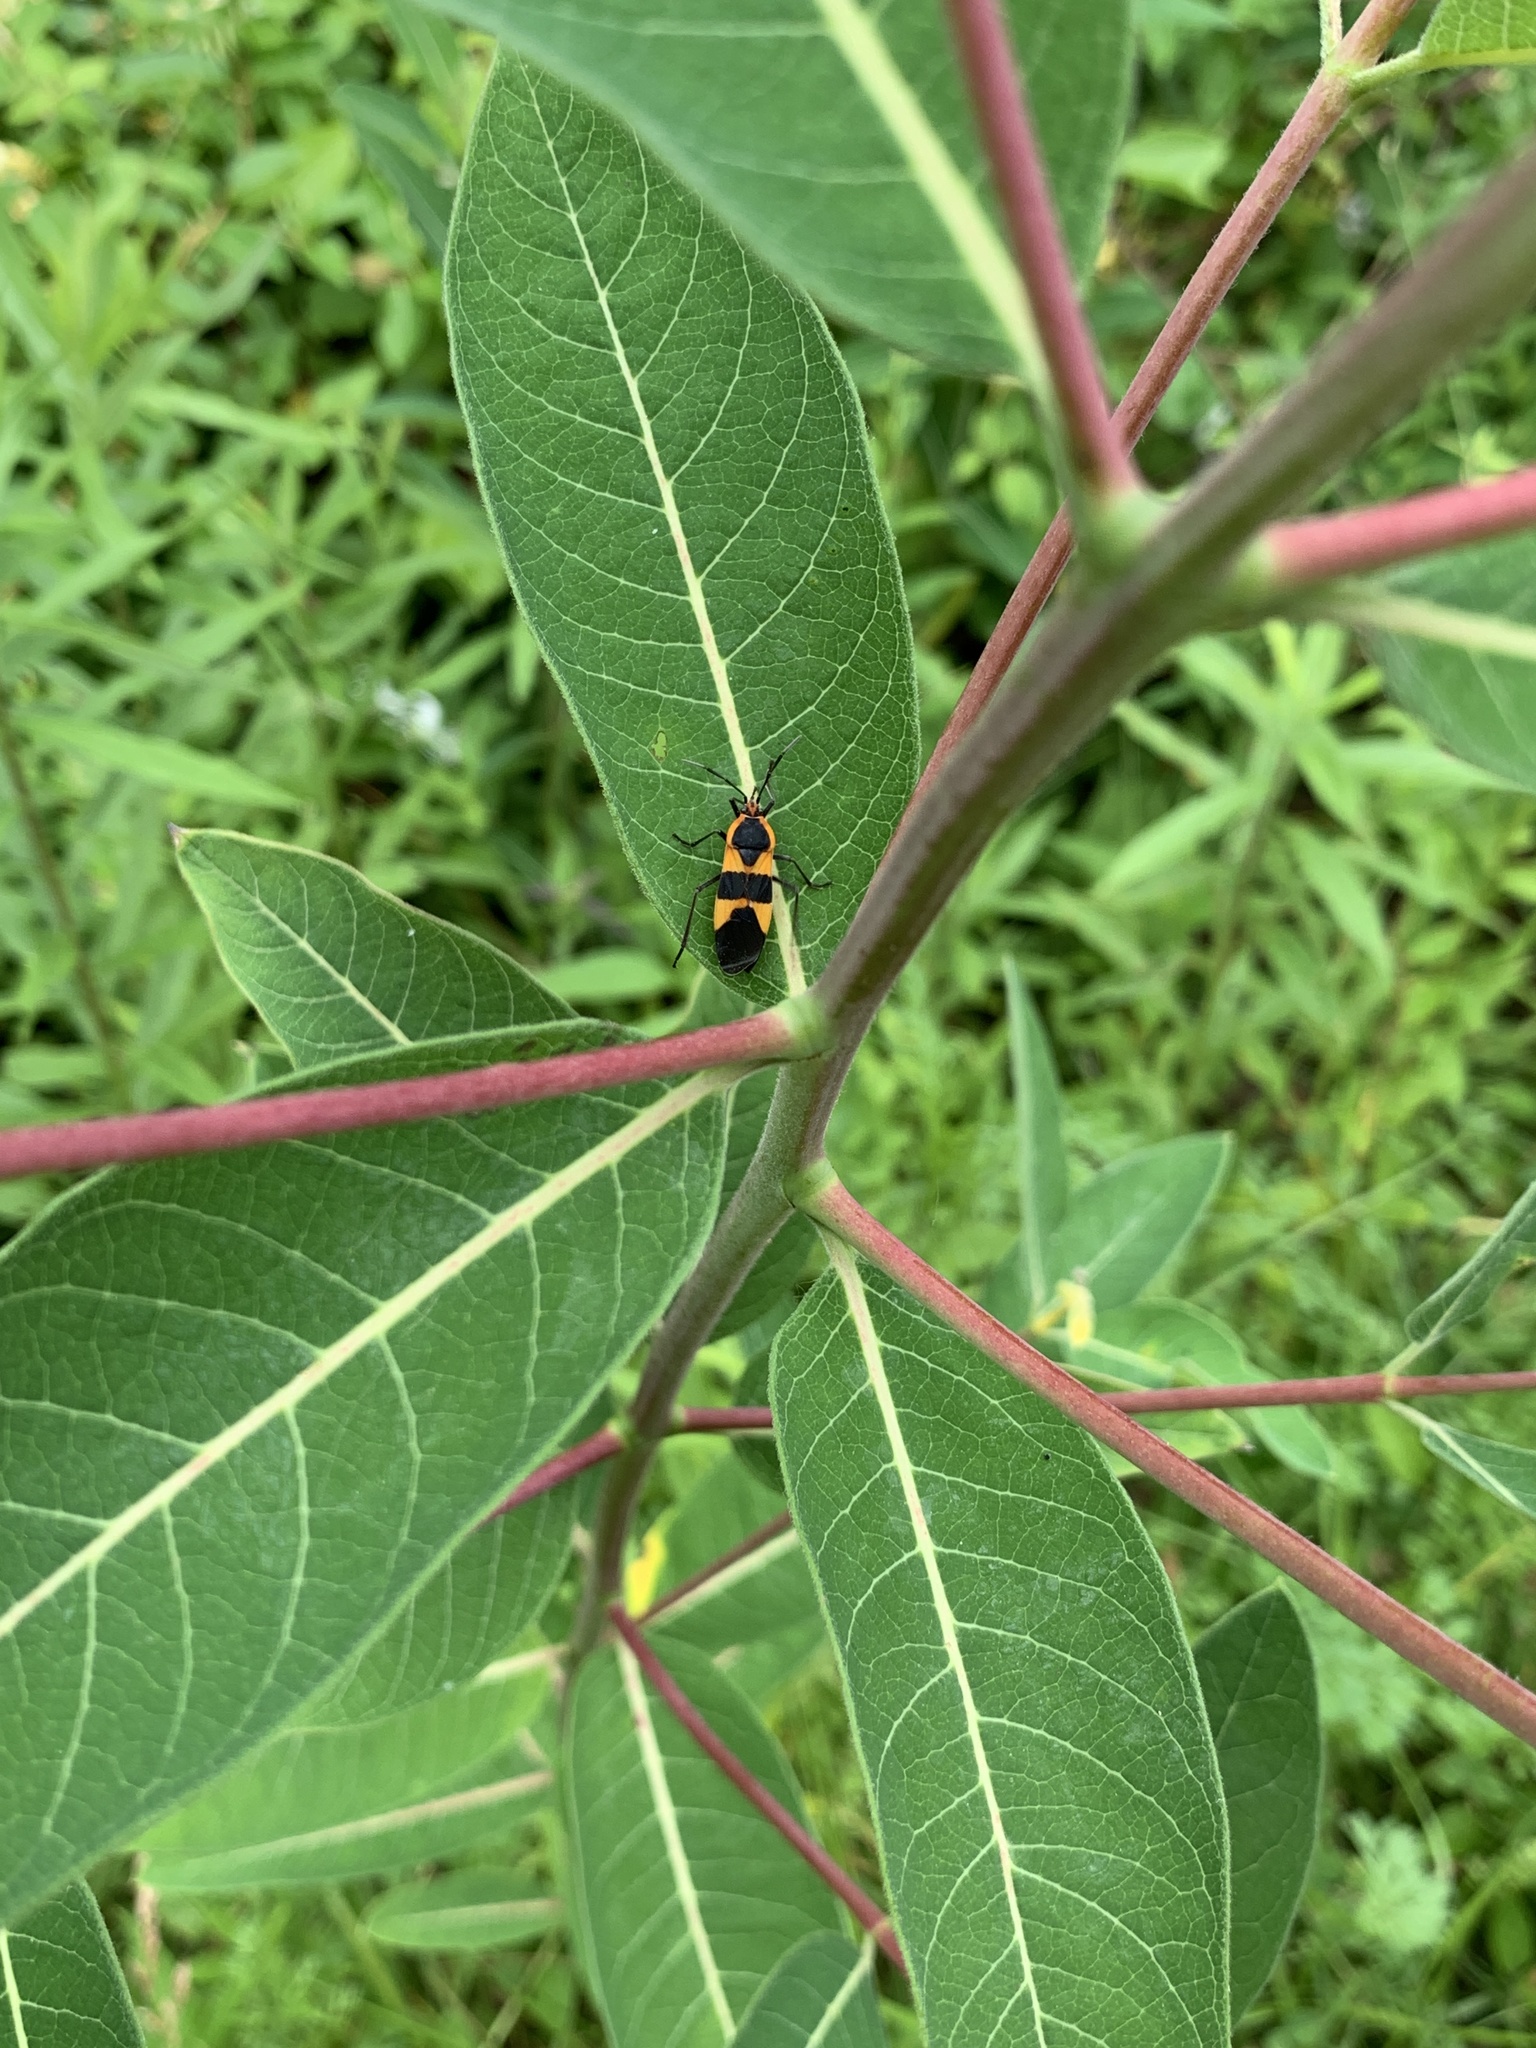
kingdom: Animalia
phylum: Arthropoda
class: Insecta
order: Hemiptera
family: Lygaeidae
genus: Oncopeltus
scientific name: Oncopeltus fasciatus
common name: Large milkweed bug
